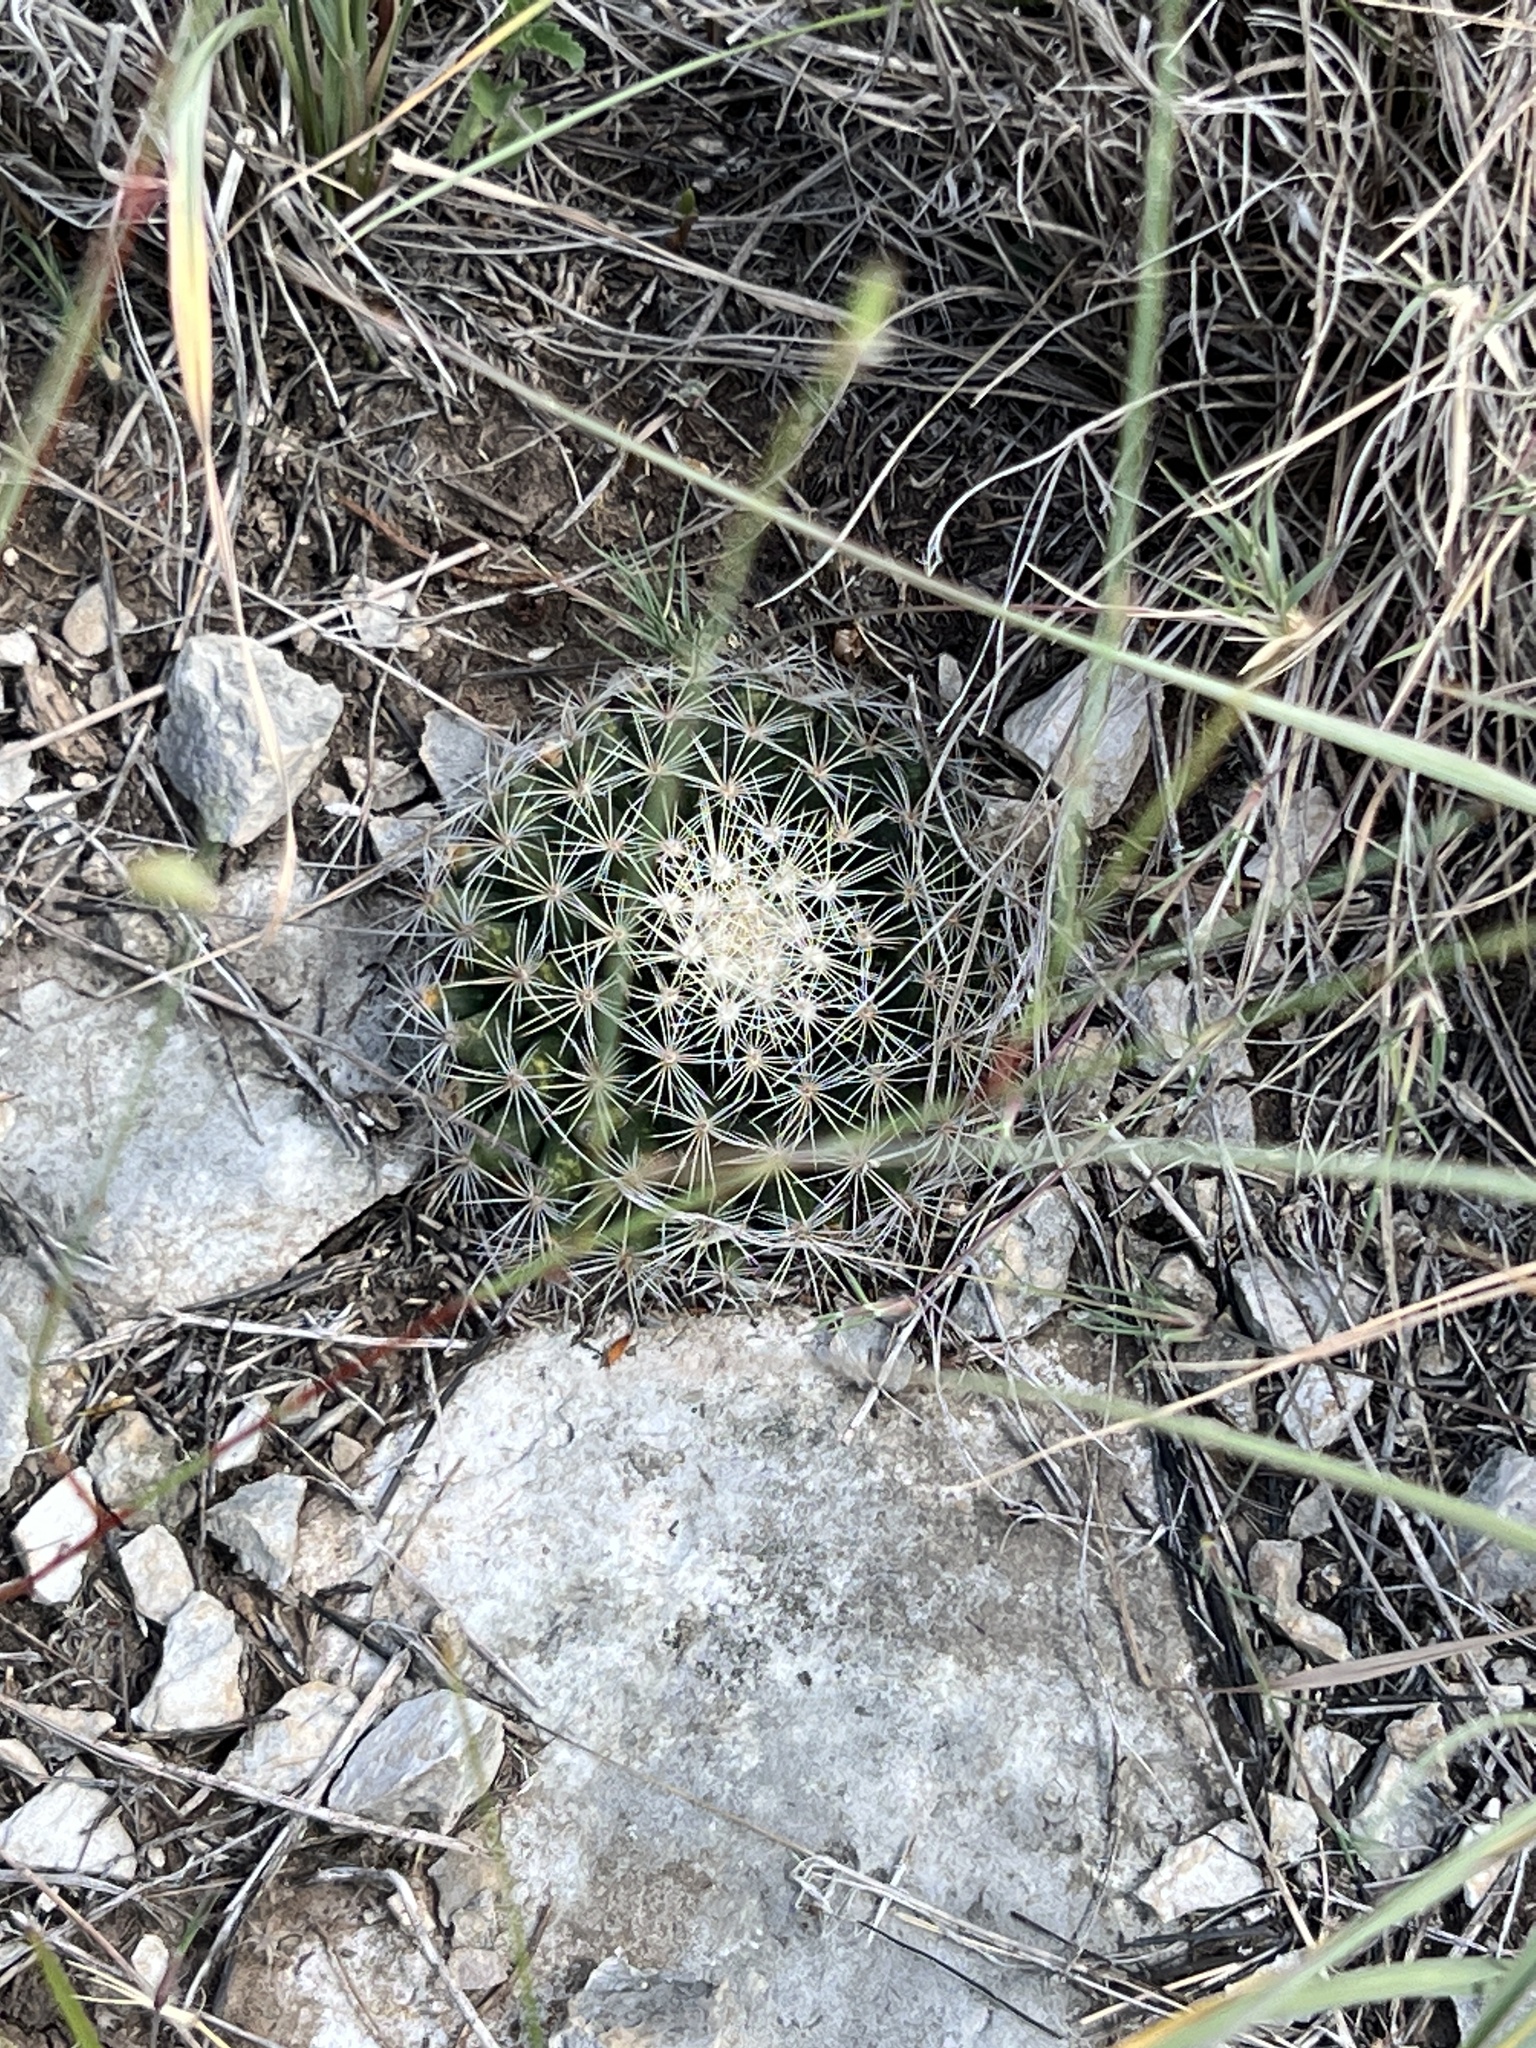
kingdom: Plantae
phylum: Tracheophyta
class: Magnoliopsida
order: Caryophyllales
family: Cactaceae
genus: Mammillaria
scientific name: Mammillaria heyderi
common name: Little nipple cactus
